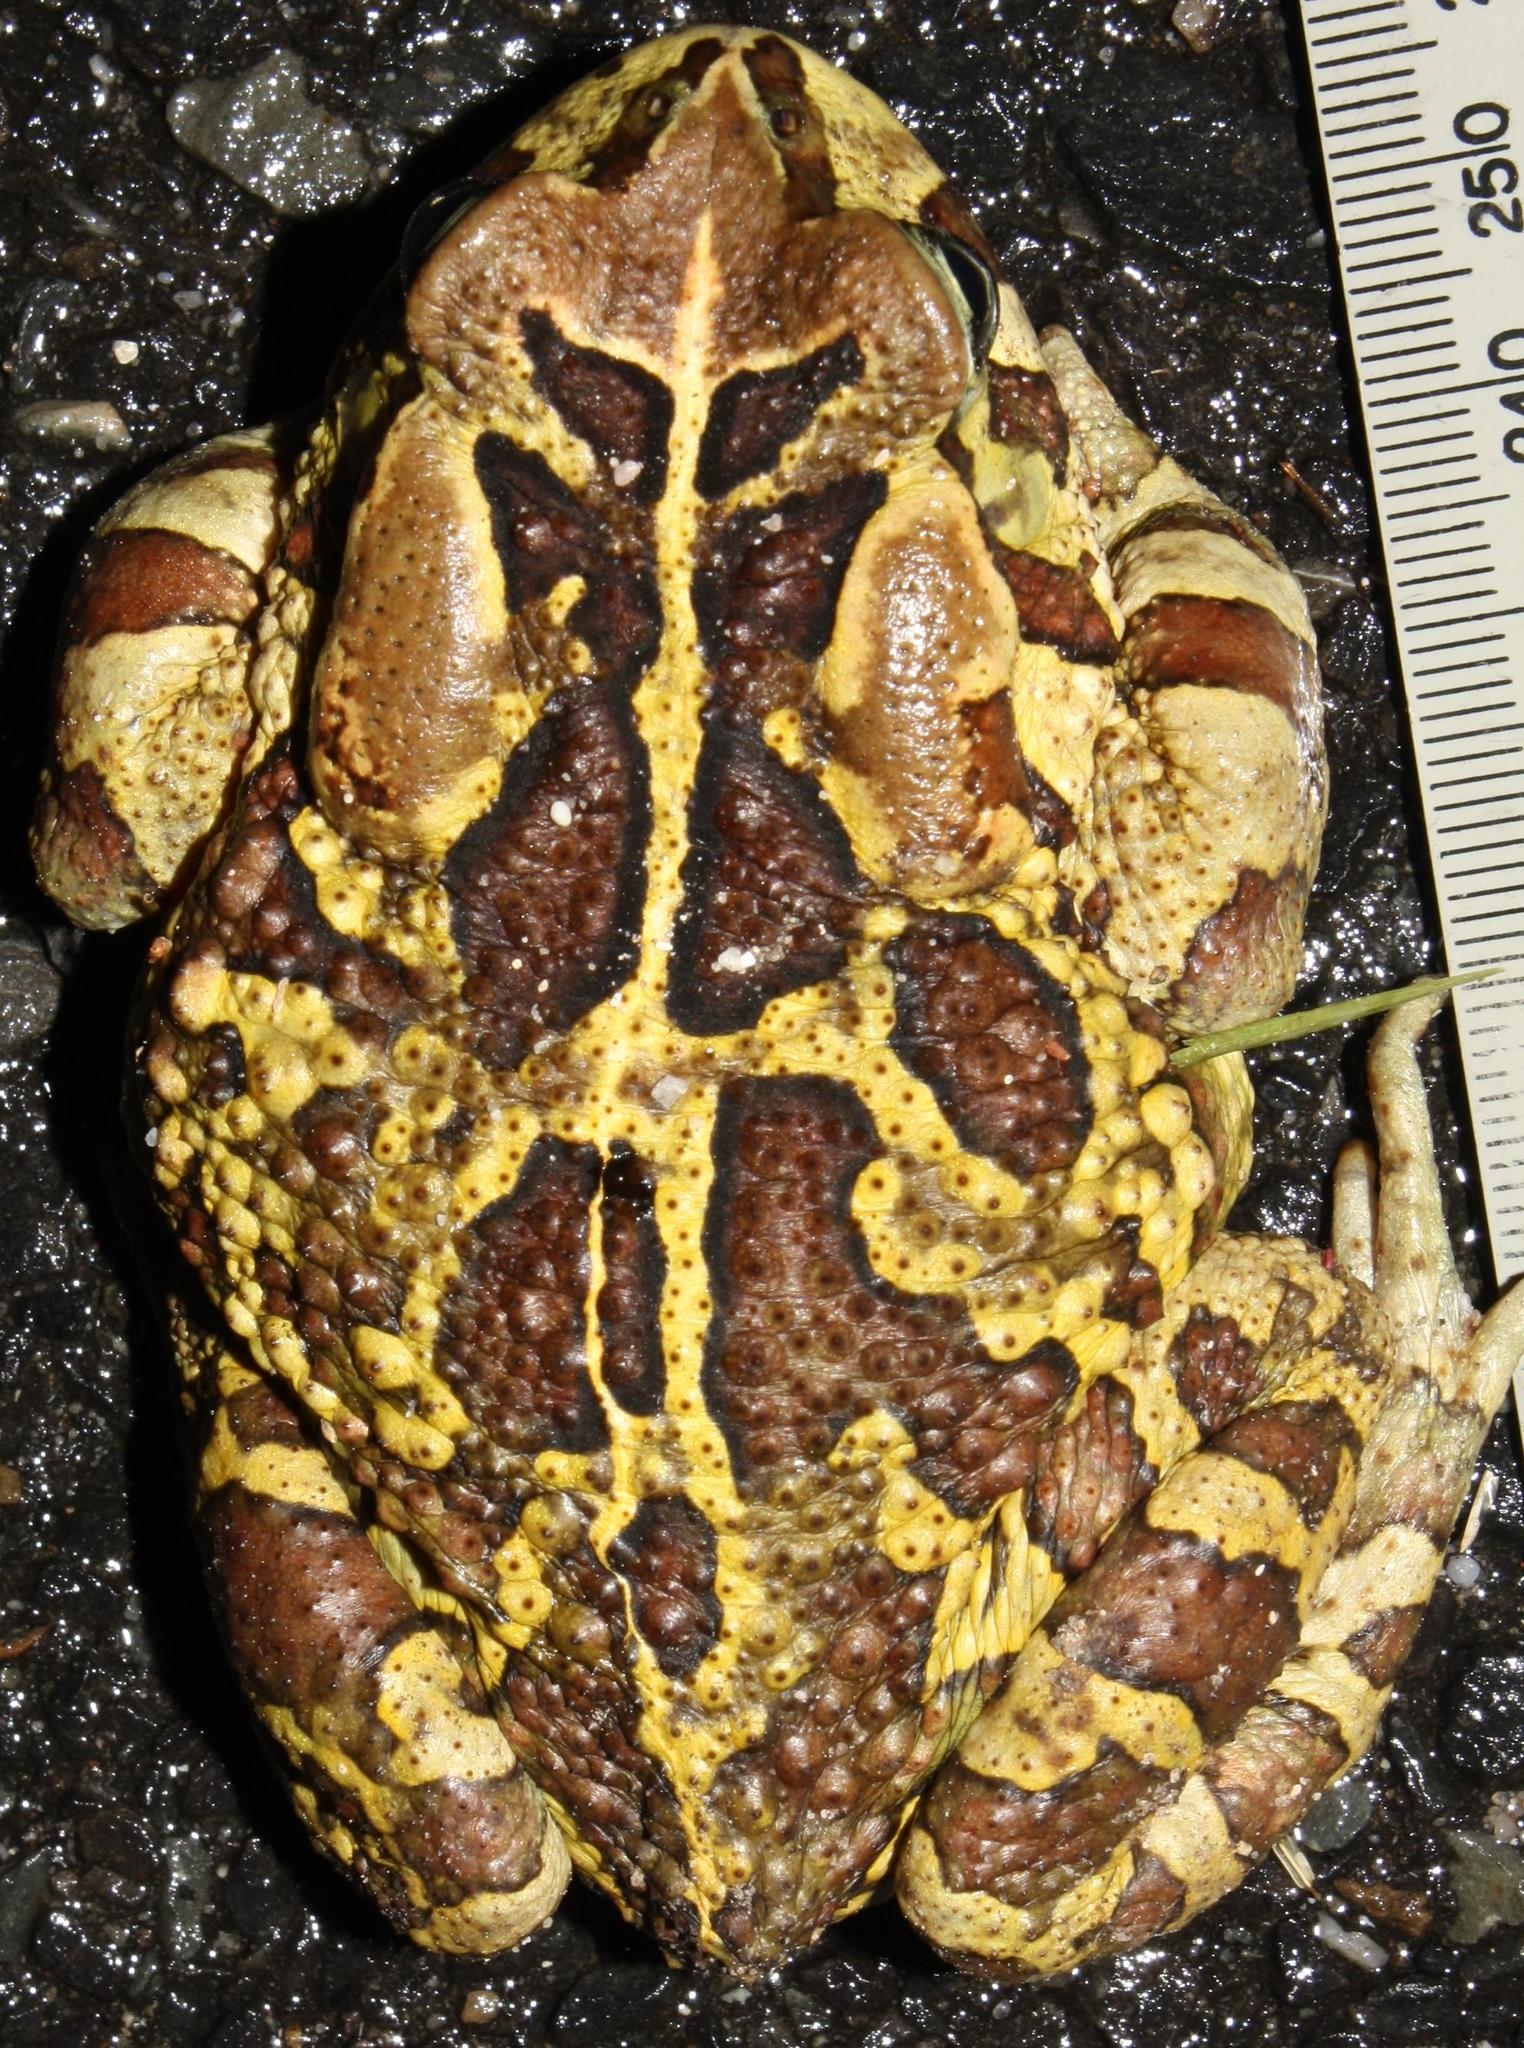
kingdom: Animalia
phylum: Chordata
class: Amphibia
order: Anura
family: Bufonidae
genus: Sclerophrys
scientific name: Sclerophrys pantherina
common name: Panther toad
